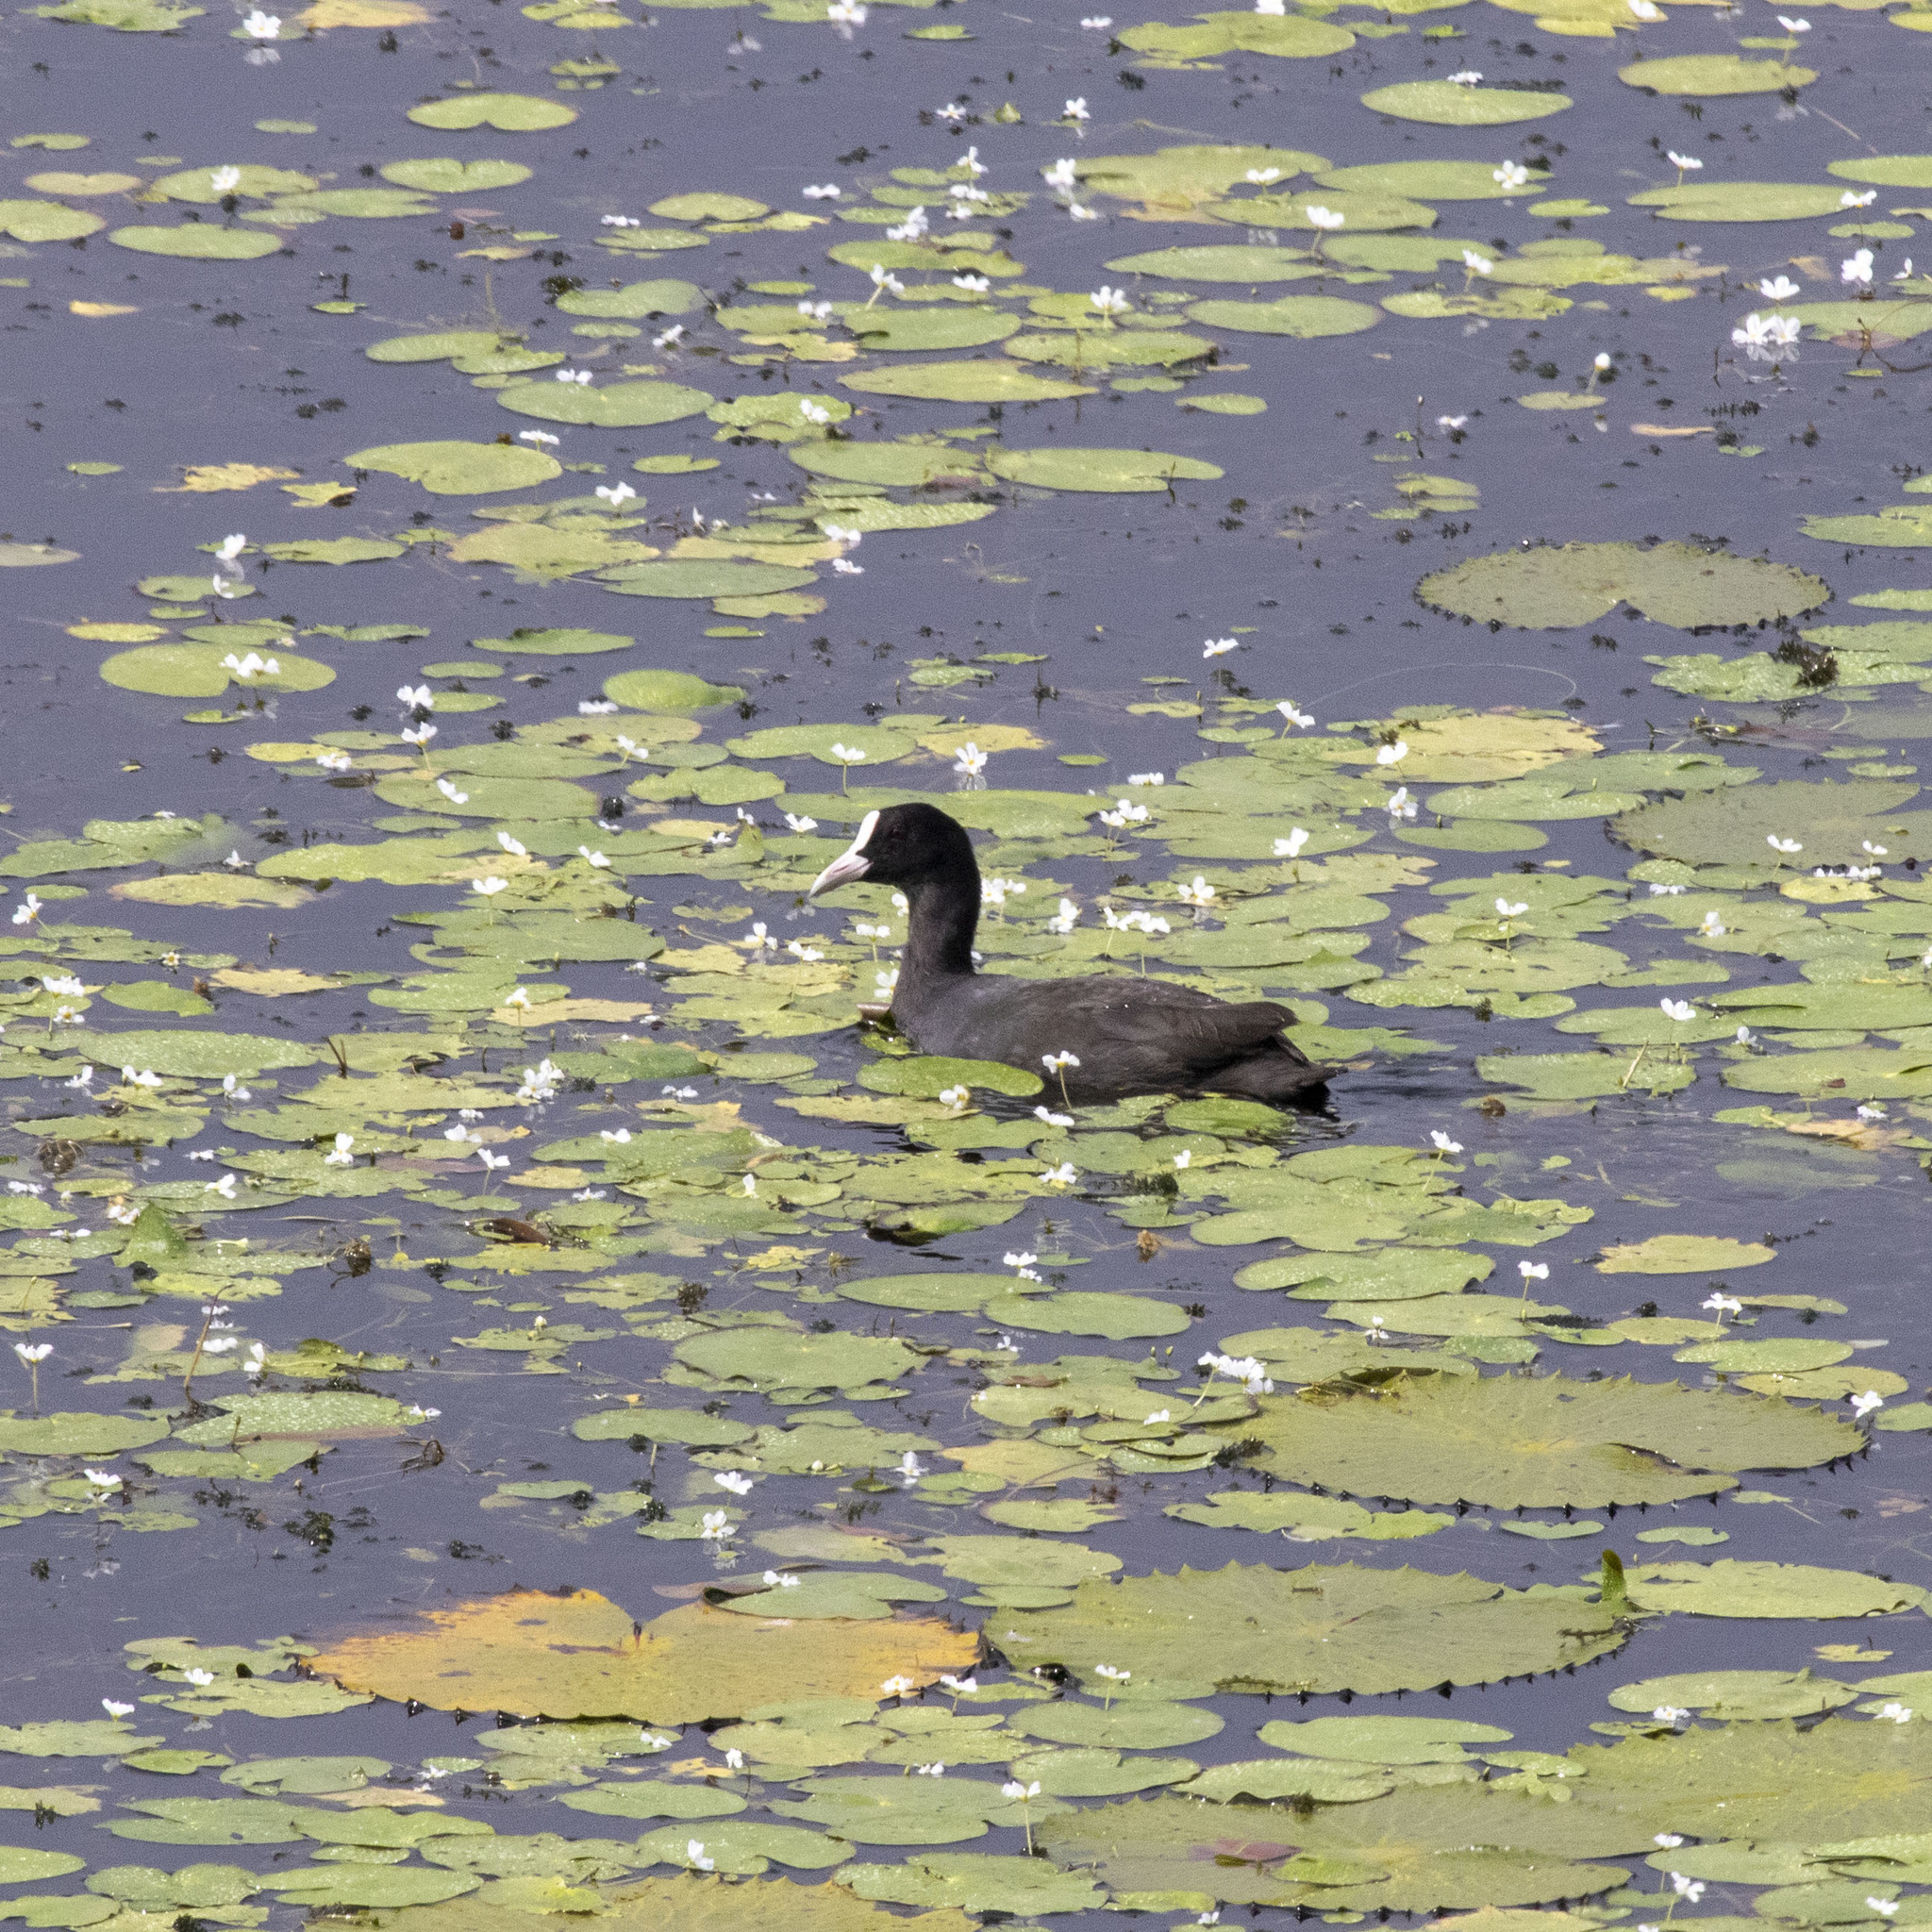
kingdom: Animalia
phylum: Chordata
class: Aves
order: Gruiformes
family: Rallidae
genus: Fulica
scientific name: Fulica atra
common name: Eurasian coot
